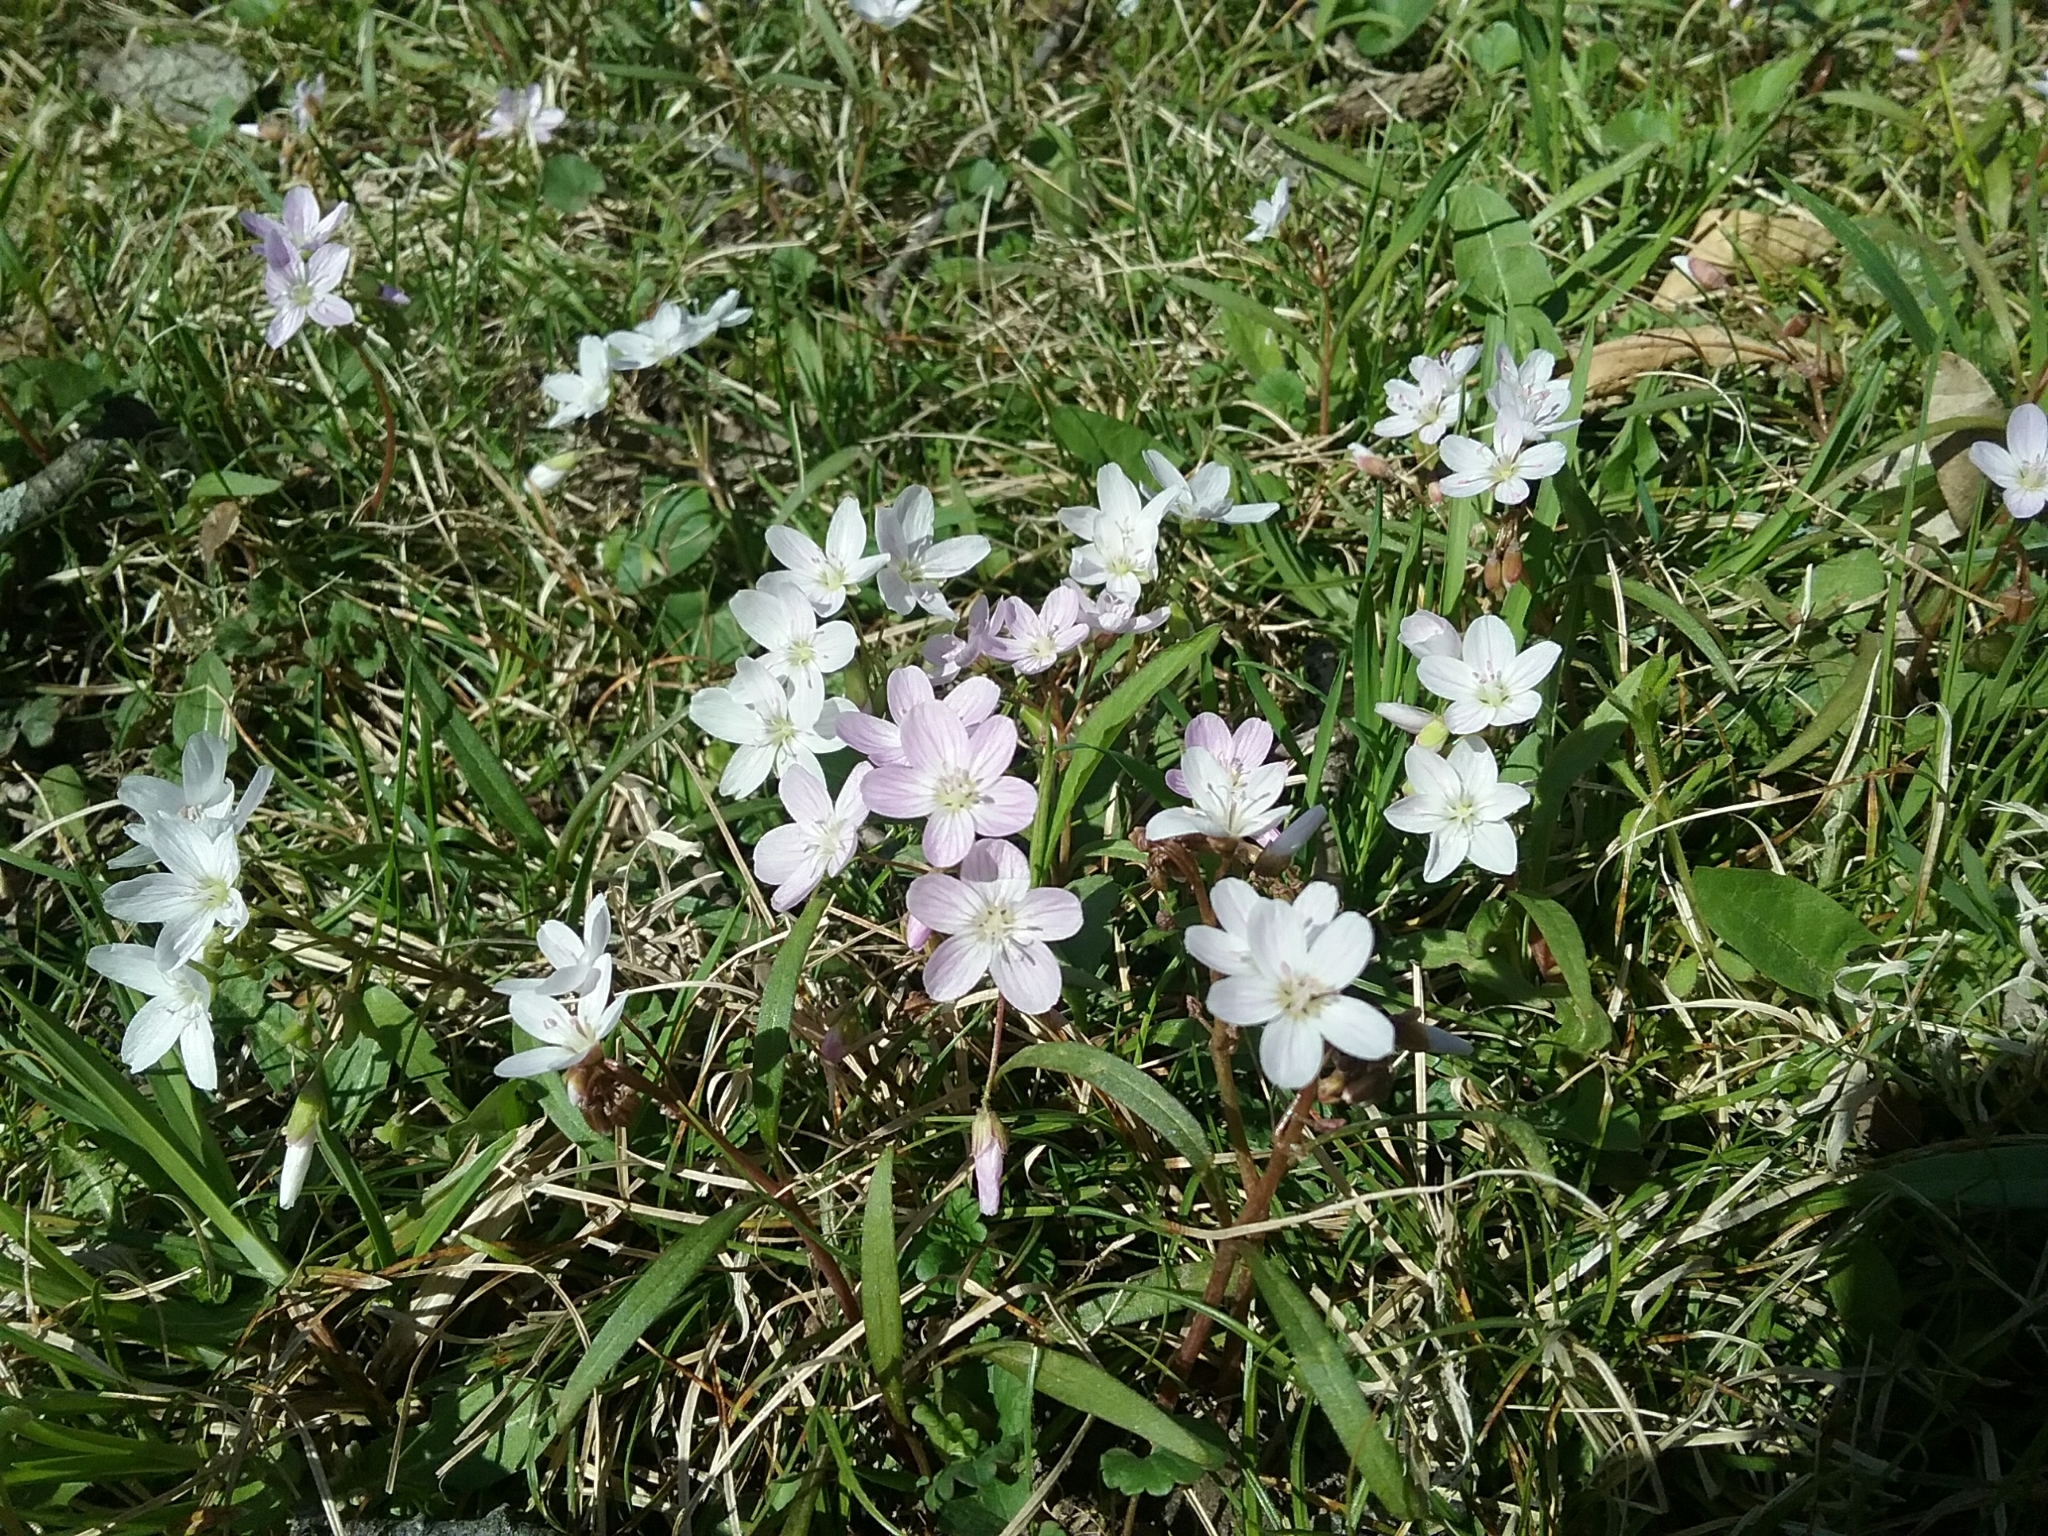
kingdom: Plantae
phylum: Tracheophyta
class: Magnoliopsida
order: Caryophyllales
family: Montiaceae
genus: Claytonia
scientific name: Claytonia virginica
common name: Virginia springbeauty
